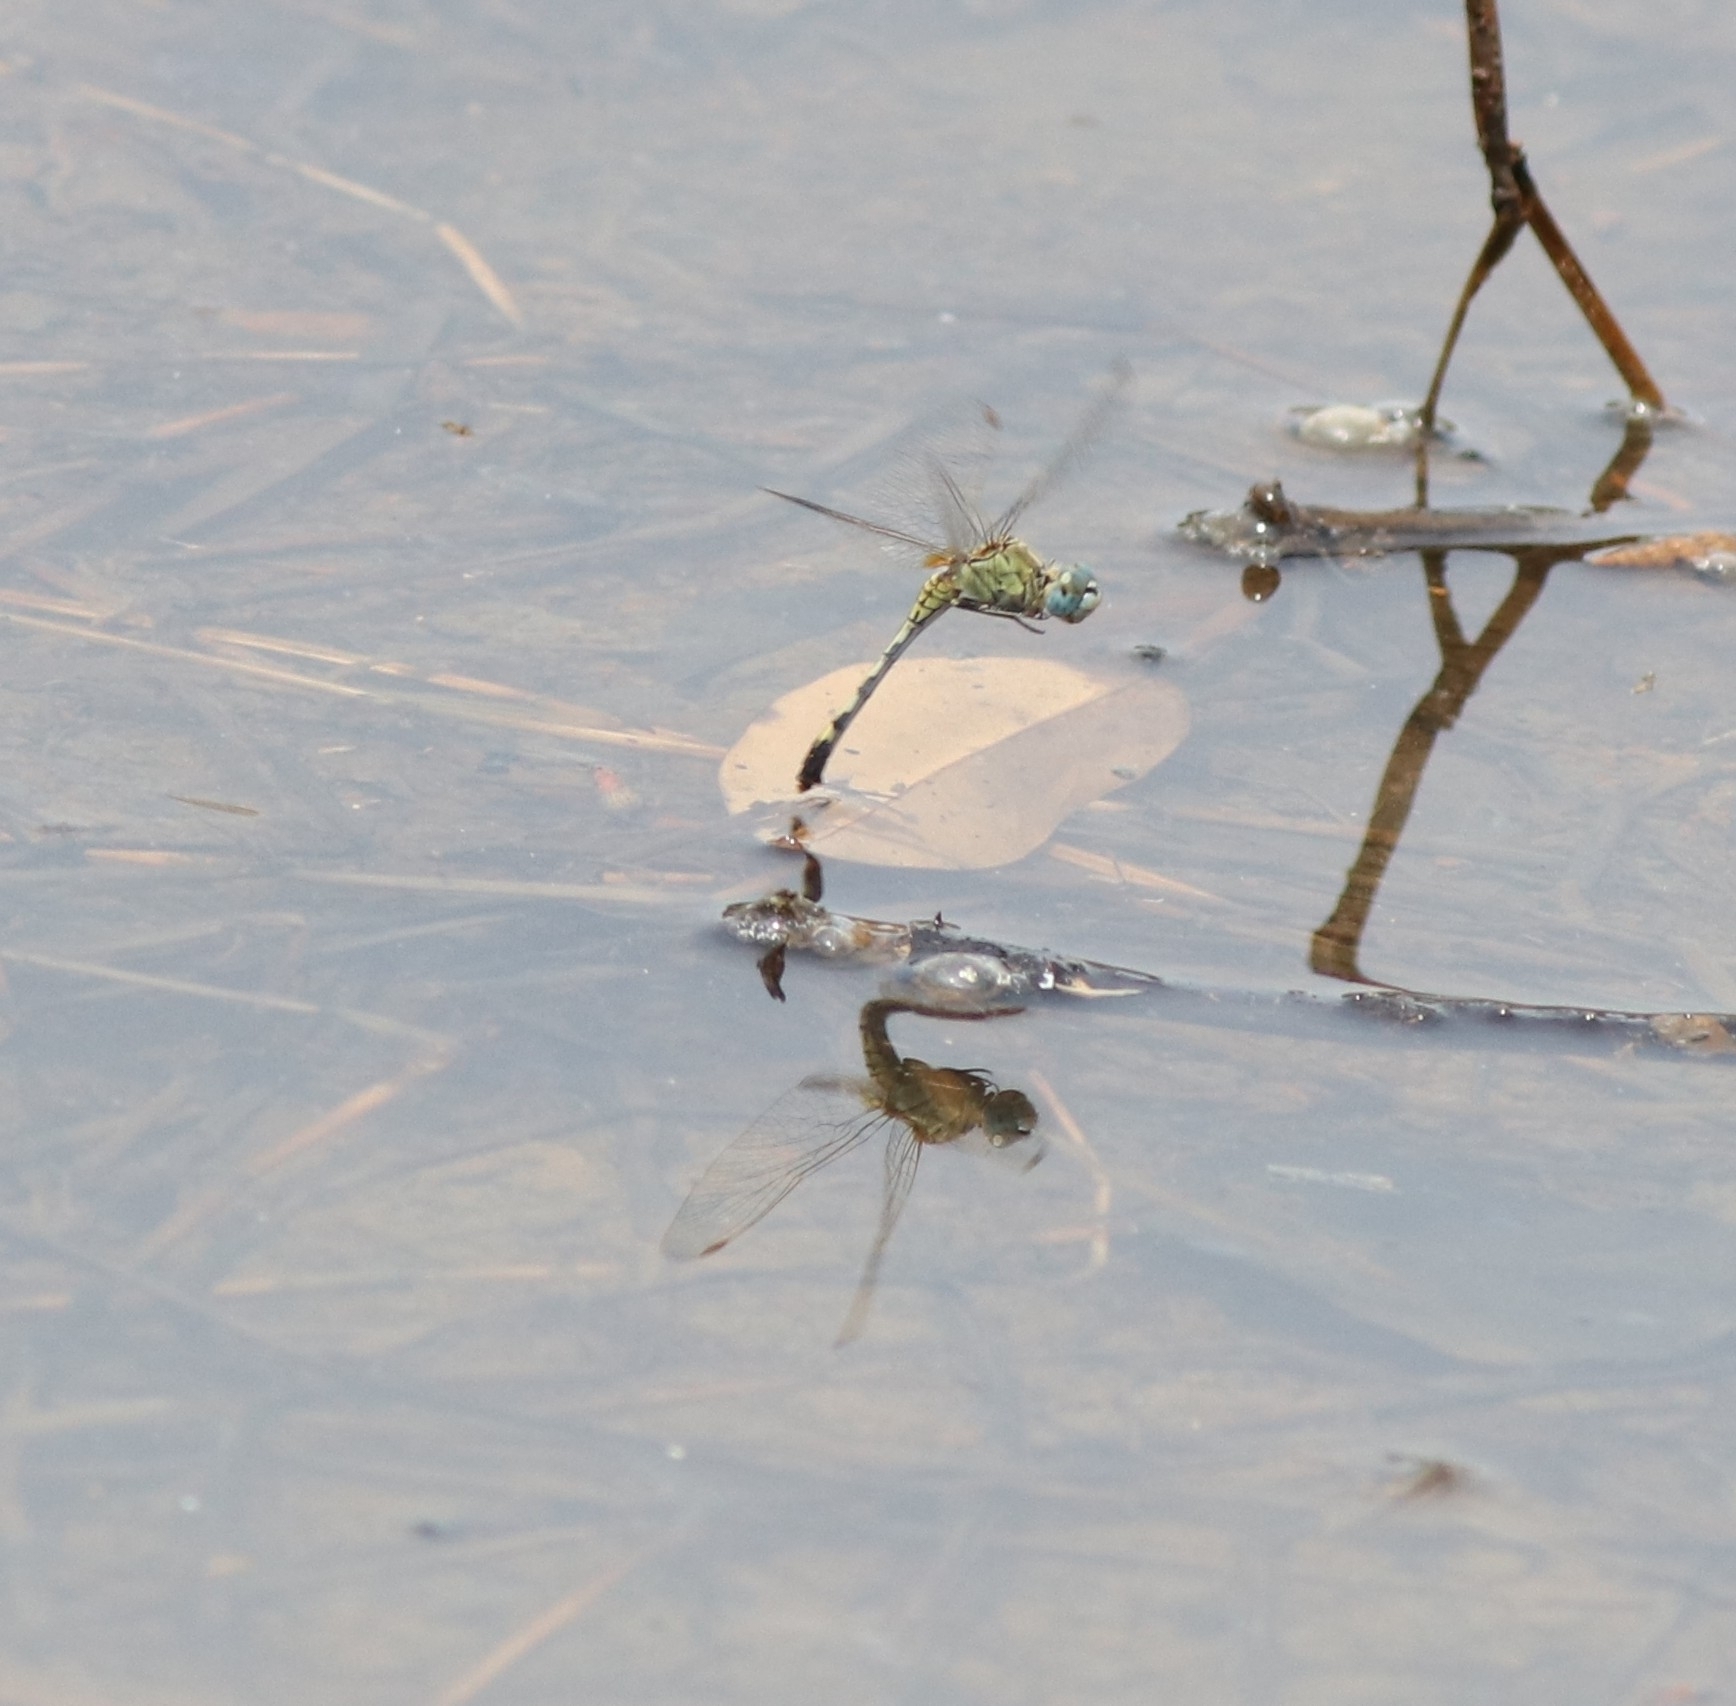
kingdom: Animalia
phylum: Arthropoda
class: Insecta
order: Odonata
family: Libellulidae
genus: Diplacodes
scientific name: Diplacodes trivialis
